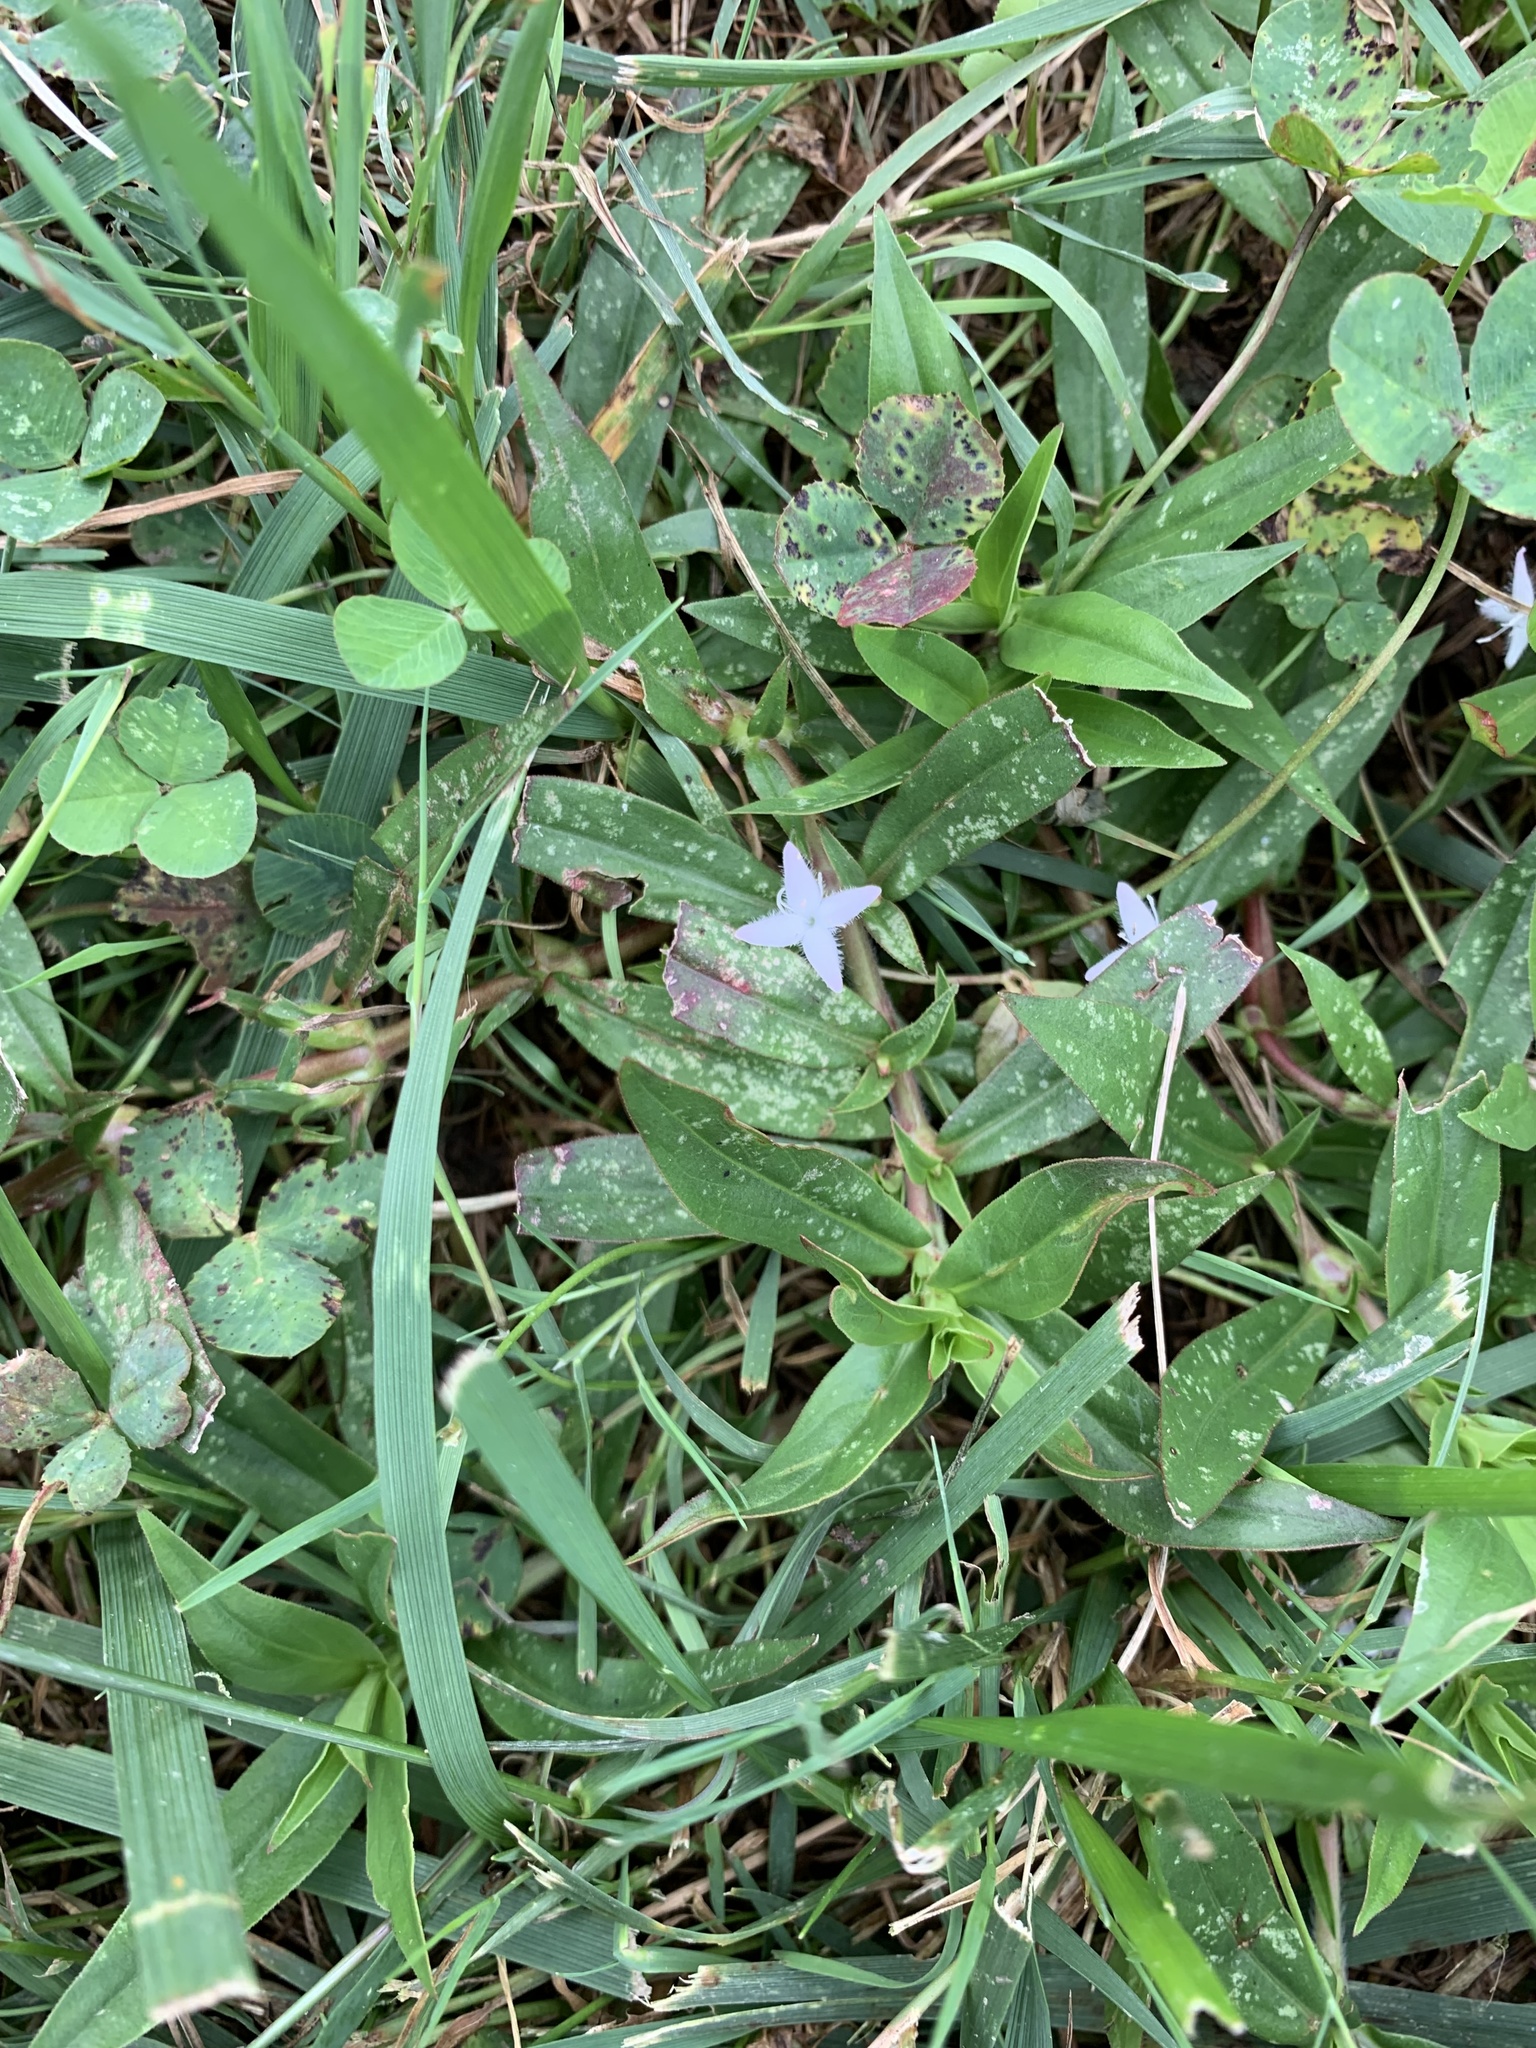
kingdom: Plantae
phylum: Tracheophyta
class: Magnoliopsida
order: Gentianales
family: Rubiaceae
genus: Diodia
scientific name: Diodia virginiana
